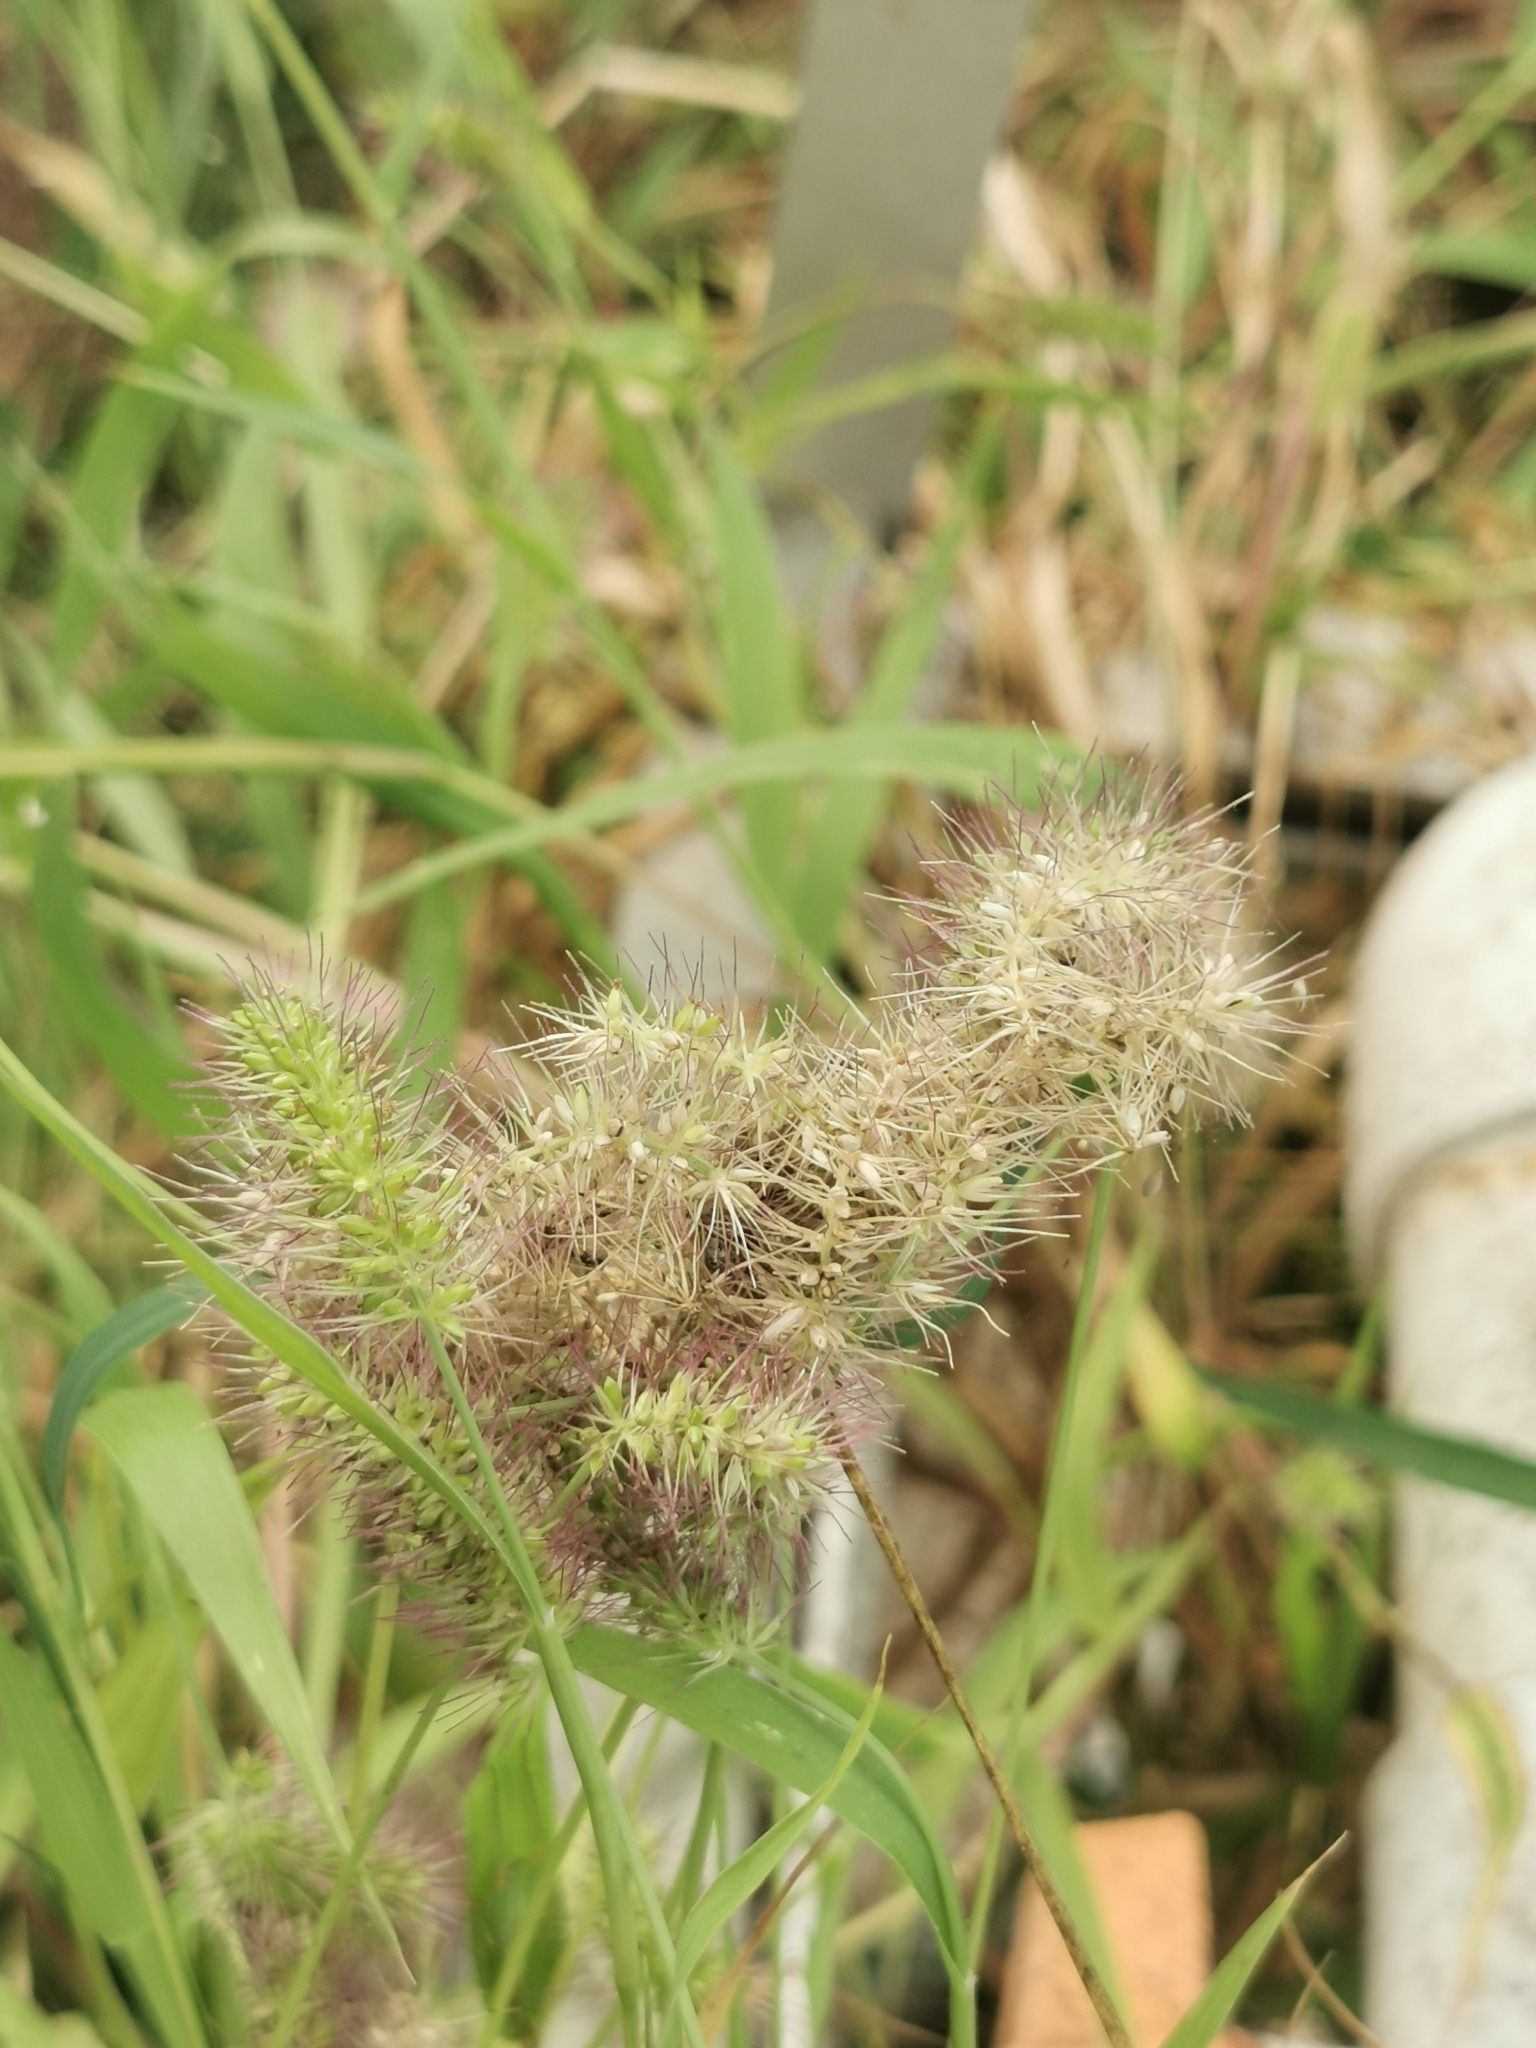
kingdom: Plantae
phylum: Tracheophyta
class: Liliopsida
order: Poales
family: Poaceae
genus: Setaria
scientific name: Setaria adhaerens
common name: Adherent bristle-grass
